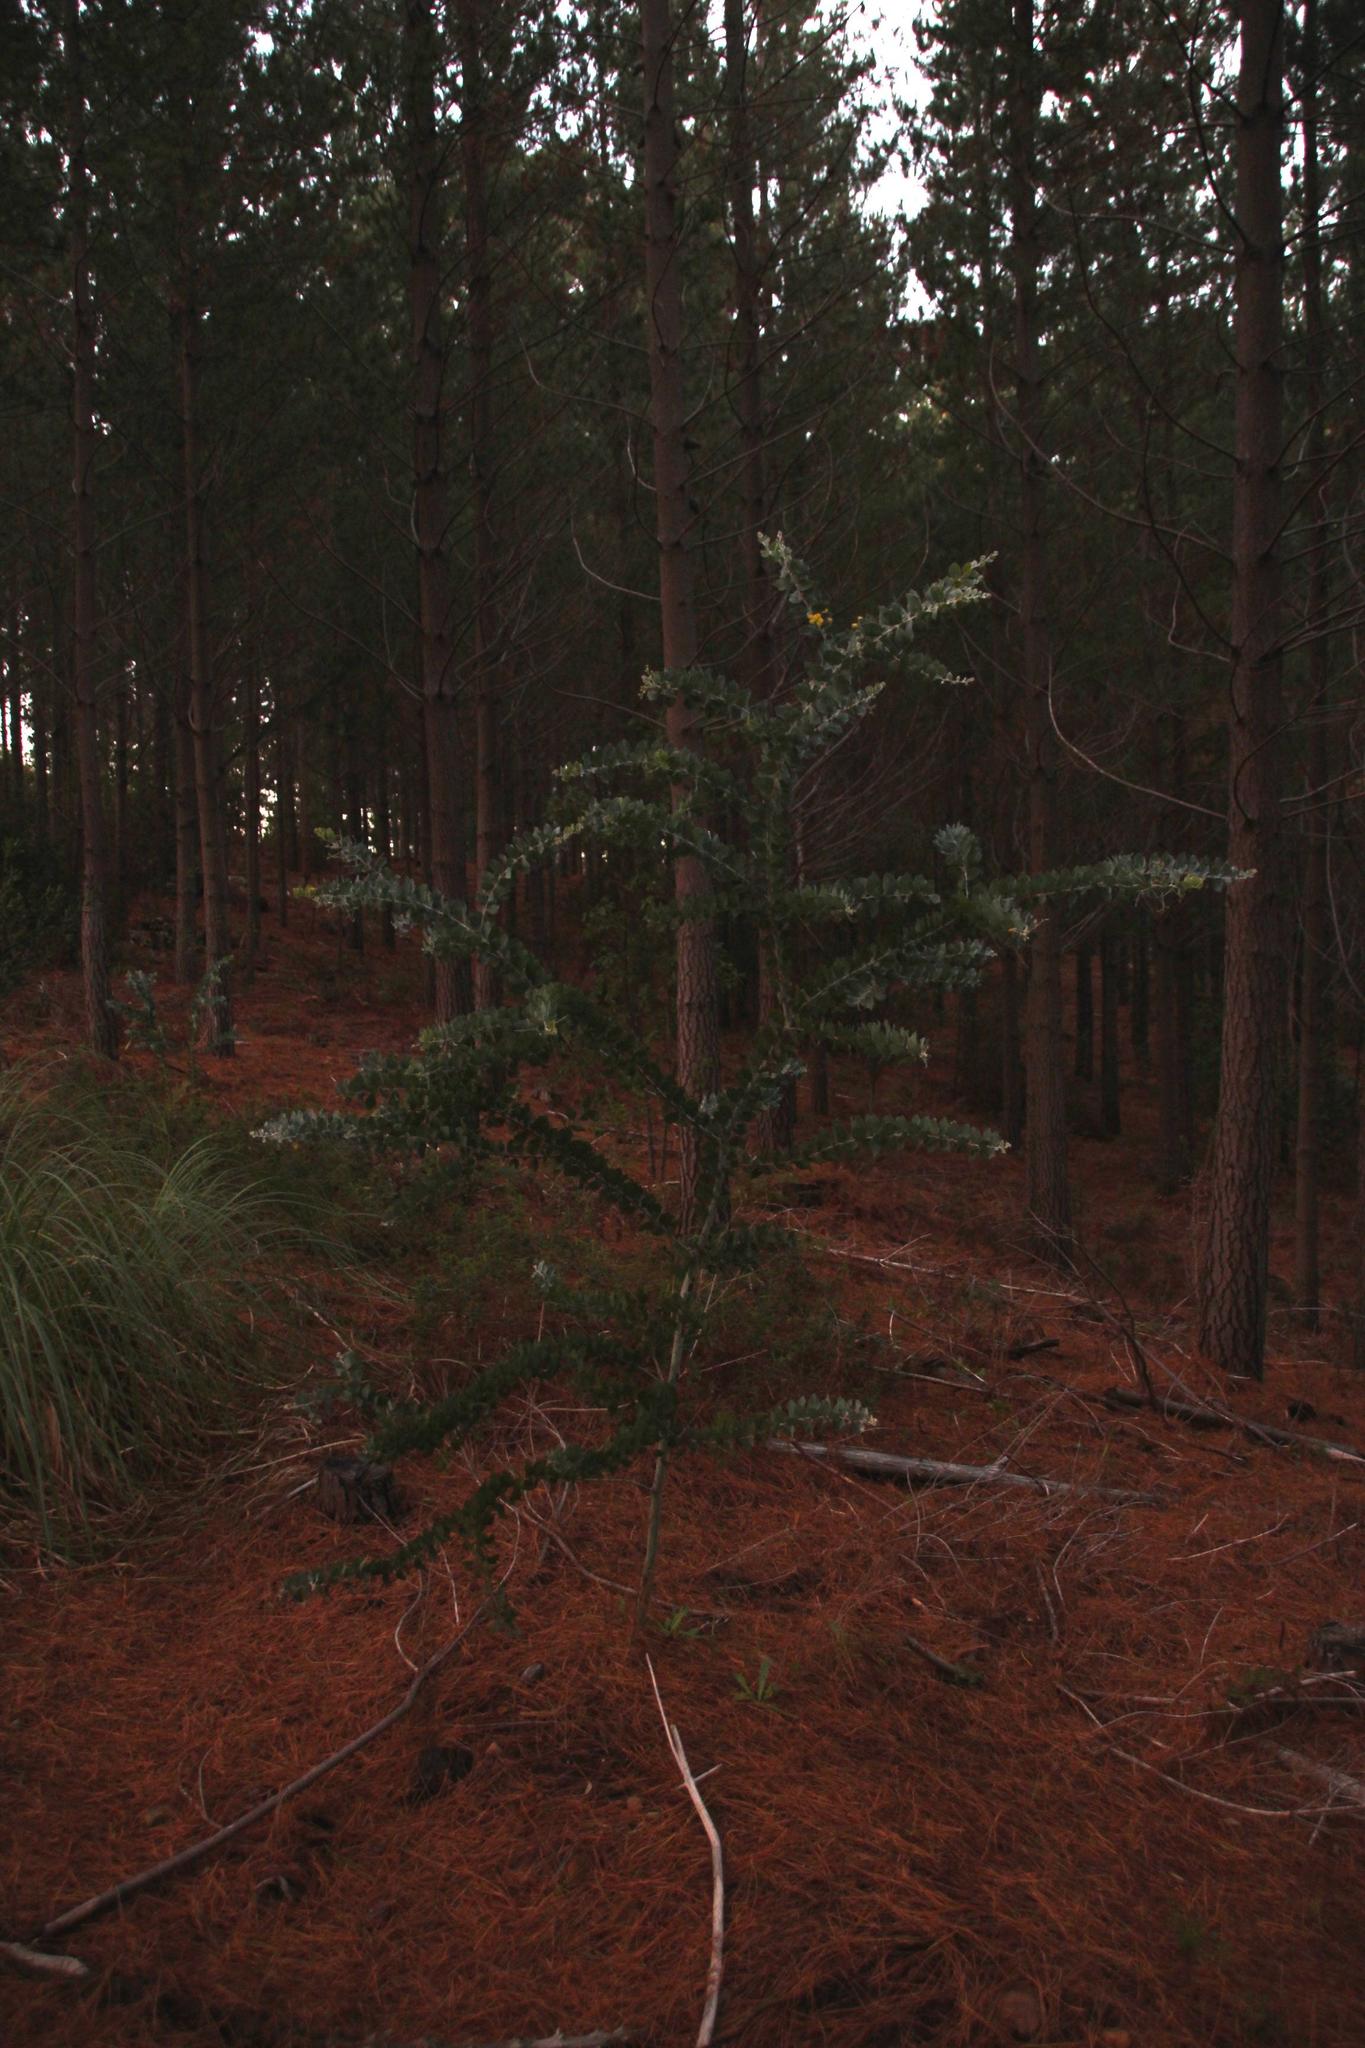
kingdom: Plantae
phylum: Tracheophyta
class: Magnoliopsida
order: Fabales
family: Fabaceae
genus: Acacia
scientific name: Acacia podalyriifolia
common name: Pearl wattle
